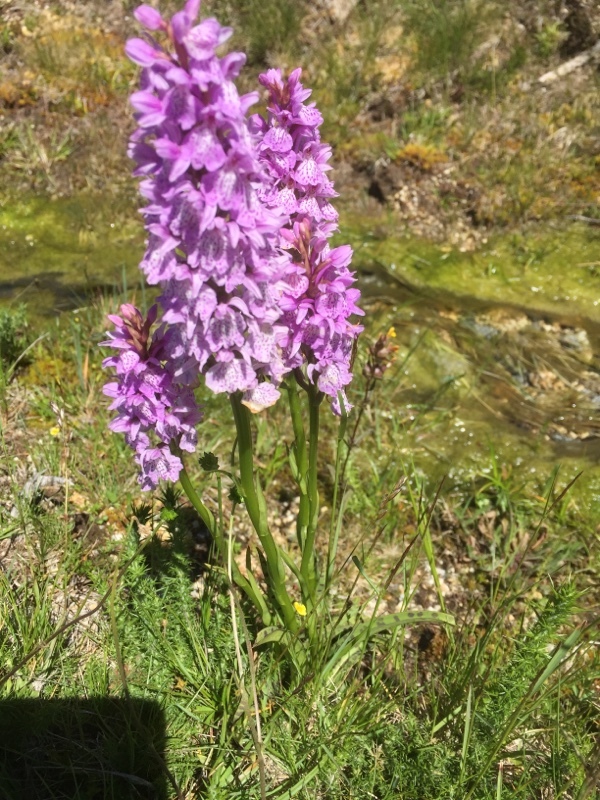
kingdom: Plantae
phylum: Tracheophyta
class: Liliopsida
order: Asparagales
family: Orchidaceae
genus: Dactylorhiza
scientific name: Dactylorhiza maculata
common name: Heath spotted-orchid
